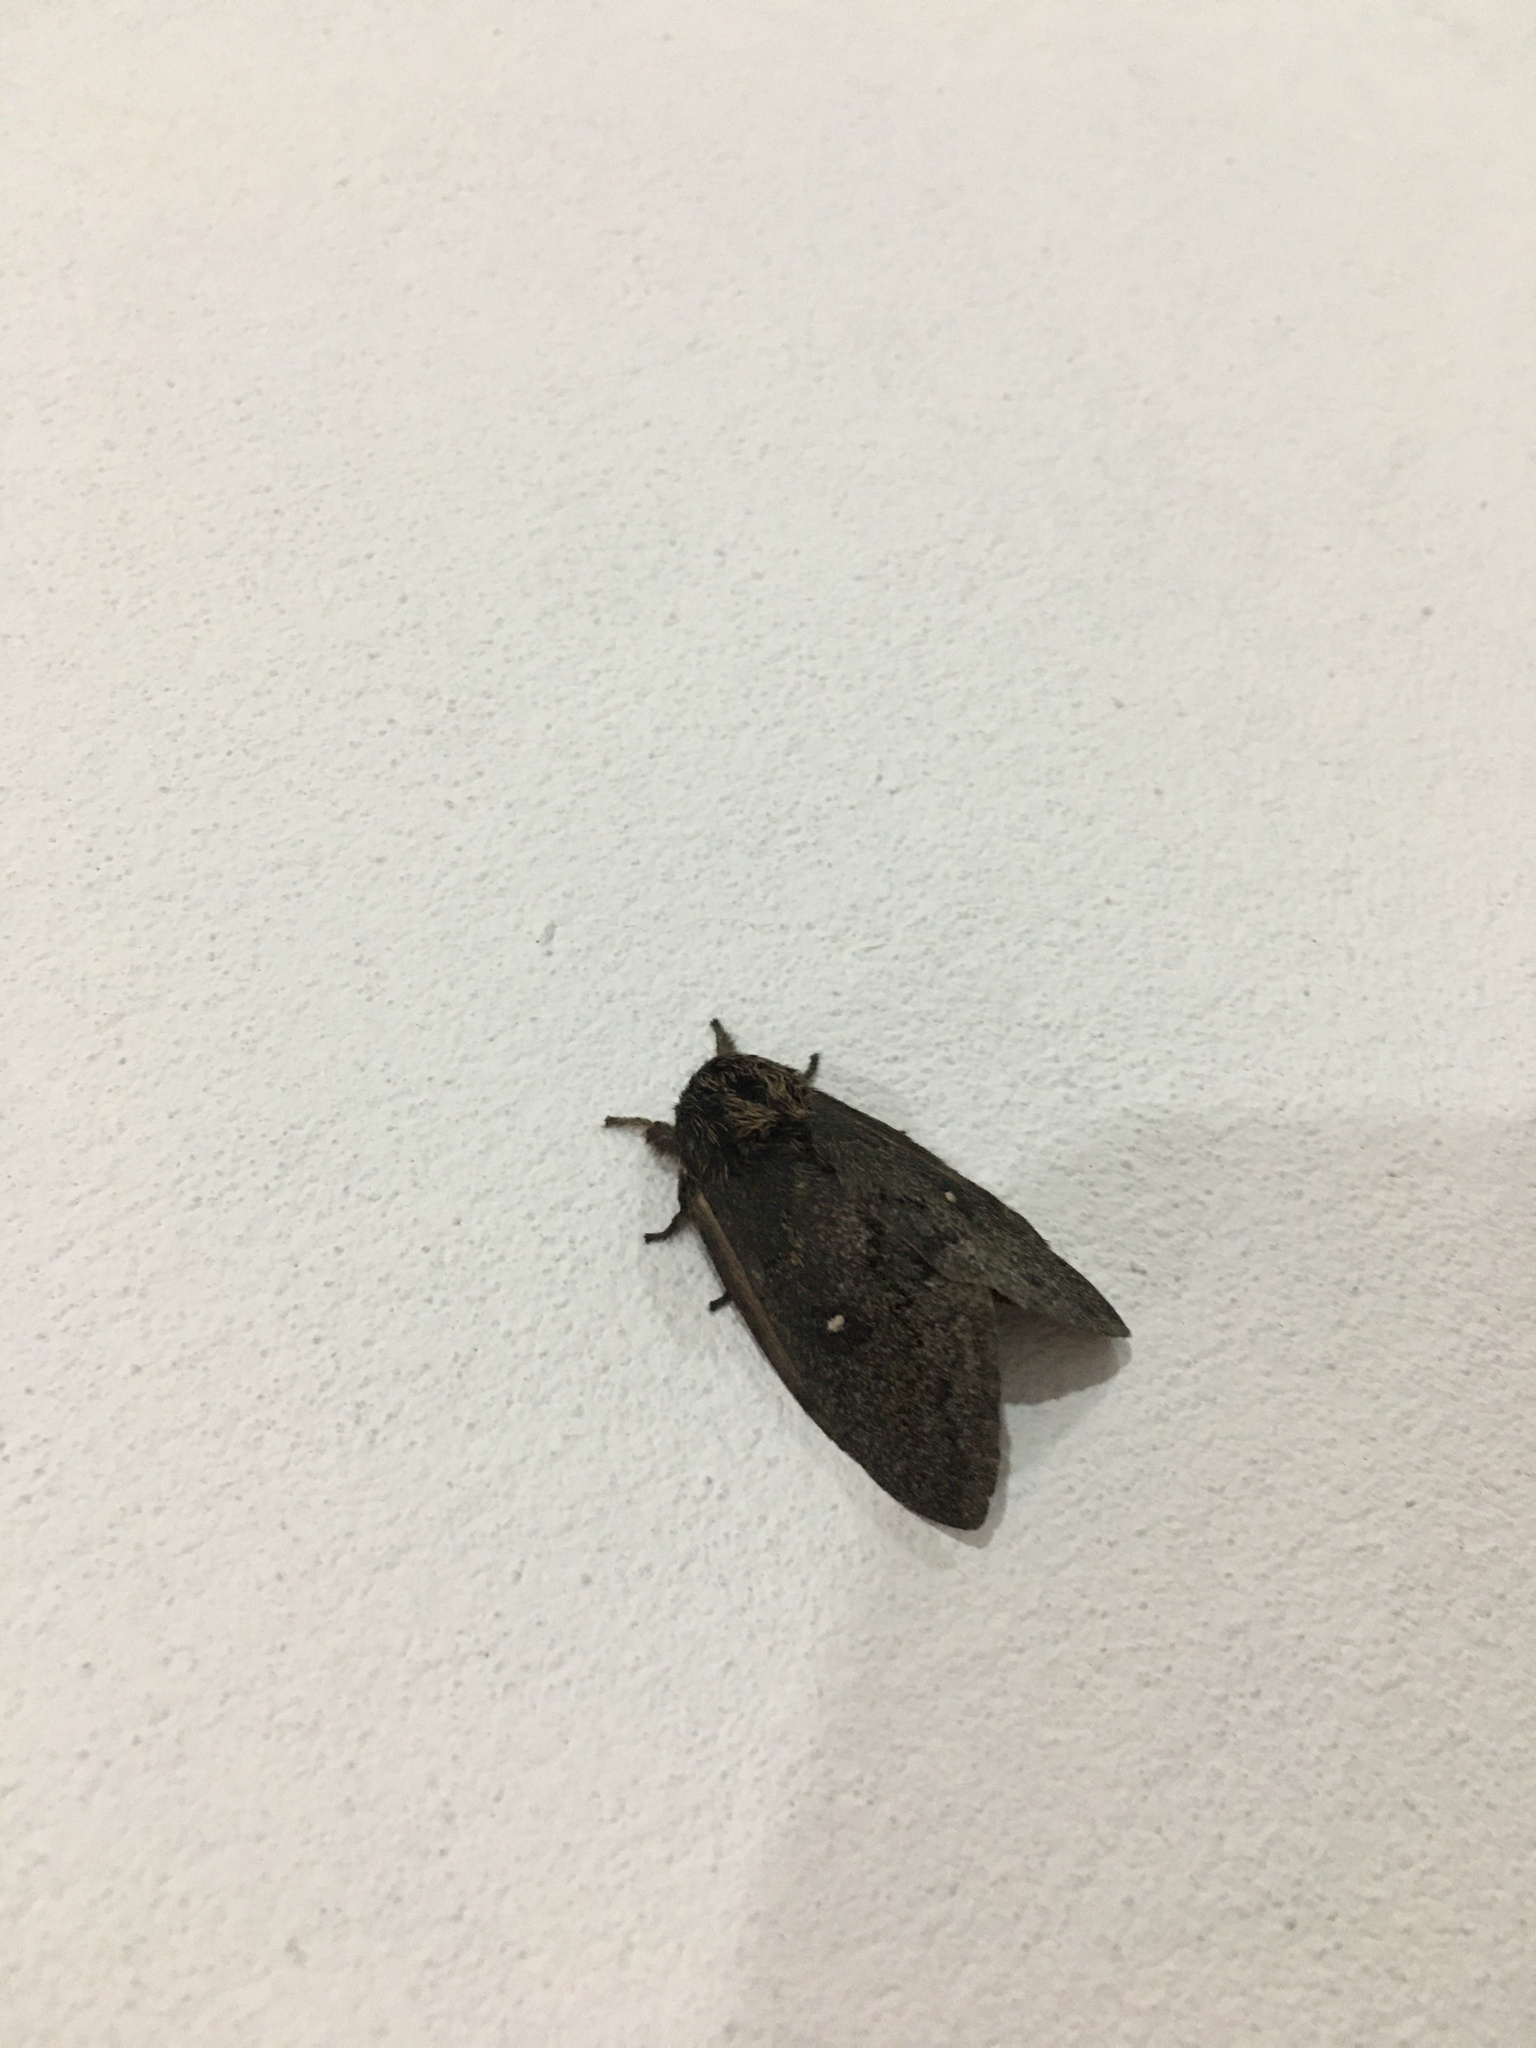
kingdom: Animalia
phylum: Arthropoda
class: Insecta
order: Lepidoptera
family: Saturniidae
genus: Leucanella
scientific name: Leucanella aspera
